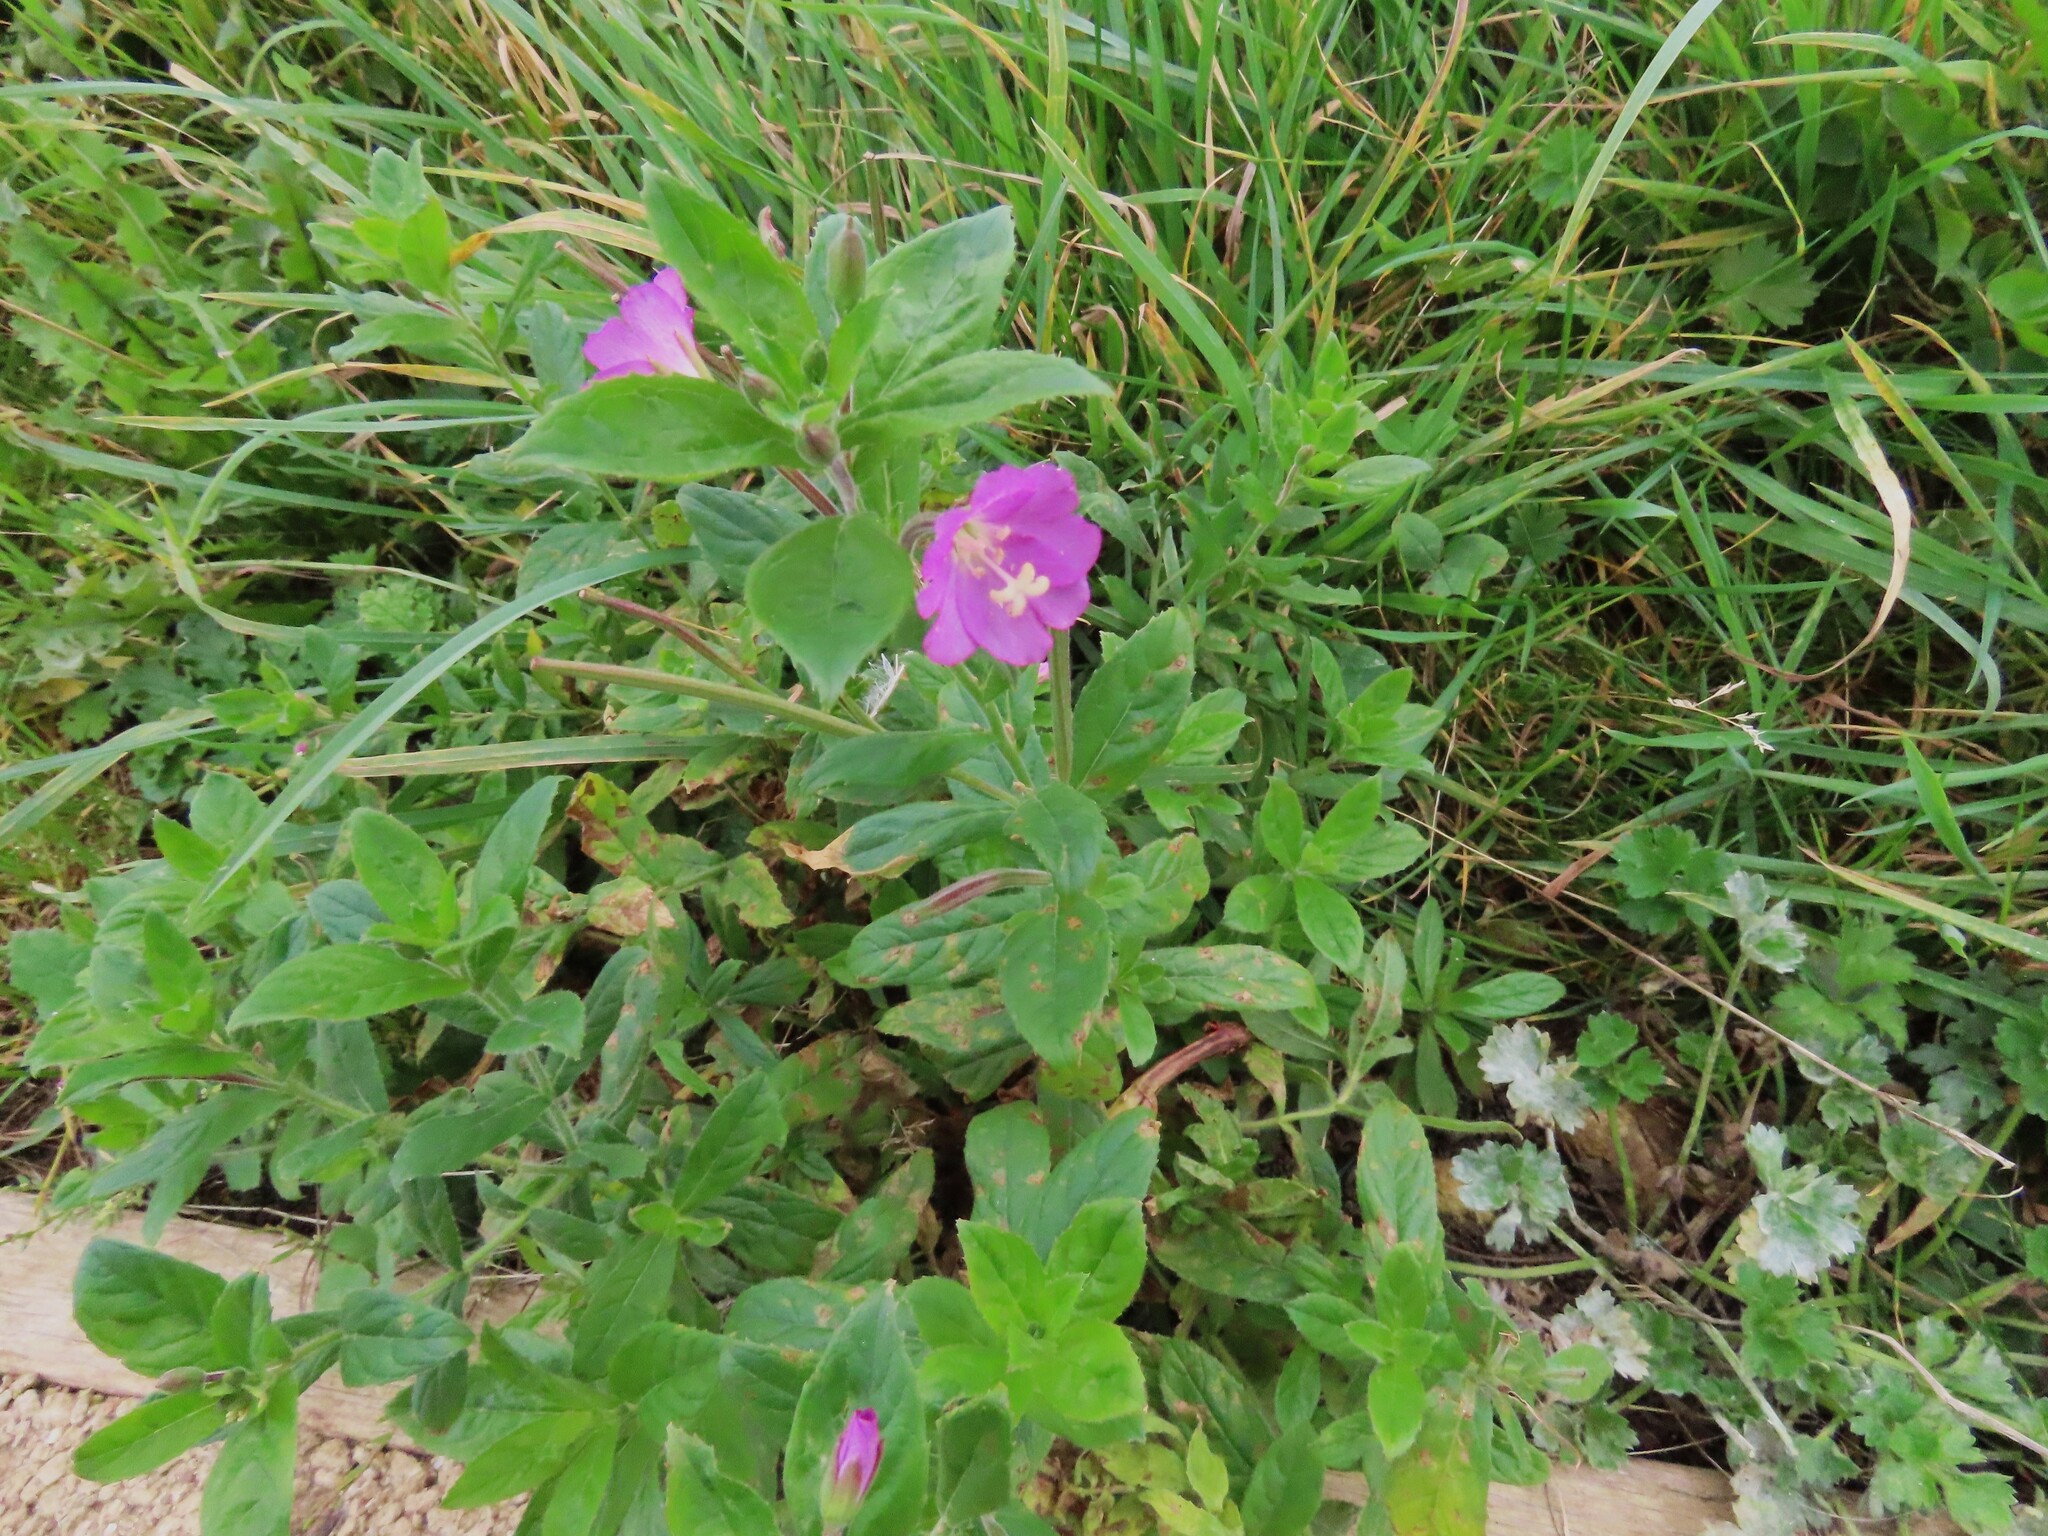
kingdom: Plantae
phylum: Tracheophyta
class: Magnoliopsida
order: Myrtales
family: Onagraceae
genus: Epilobium
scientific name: Epilobium hirsutum
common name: Great willowherb
